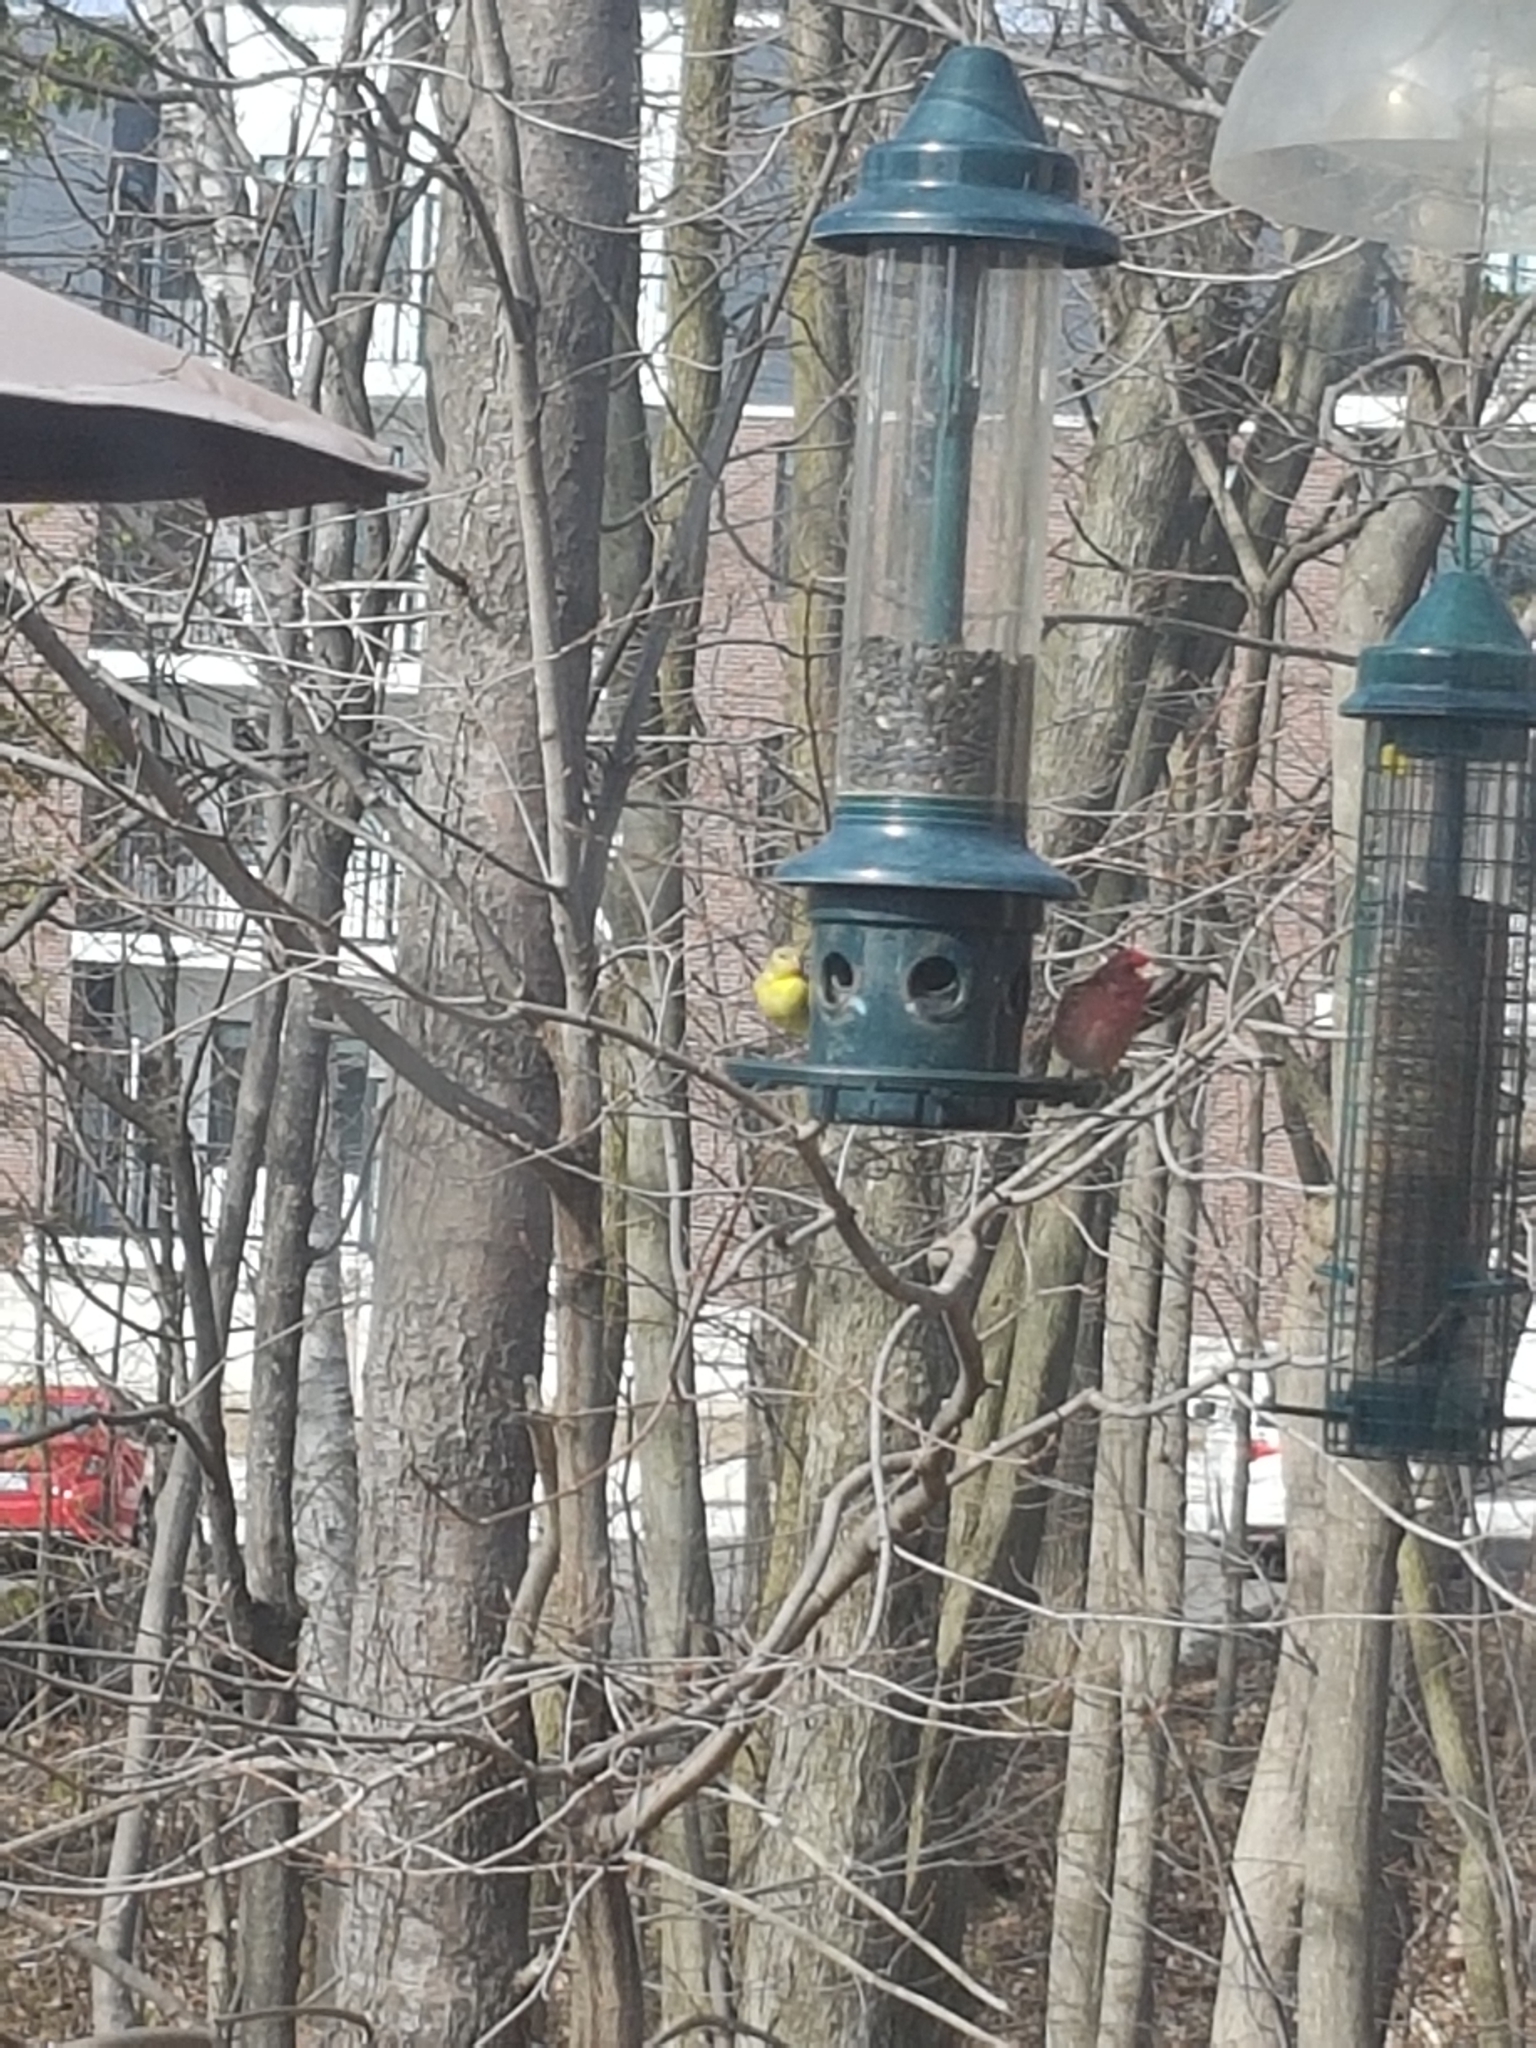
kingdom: Animalia
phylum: Chordata
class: Aves
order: Passeriformes
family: Fringillidae
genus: Spinus
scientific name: Spinus tristis
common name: American goldfinch
